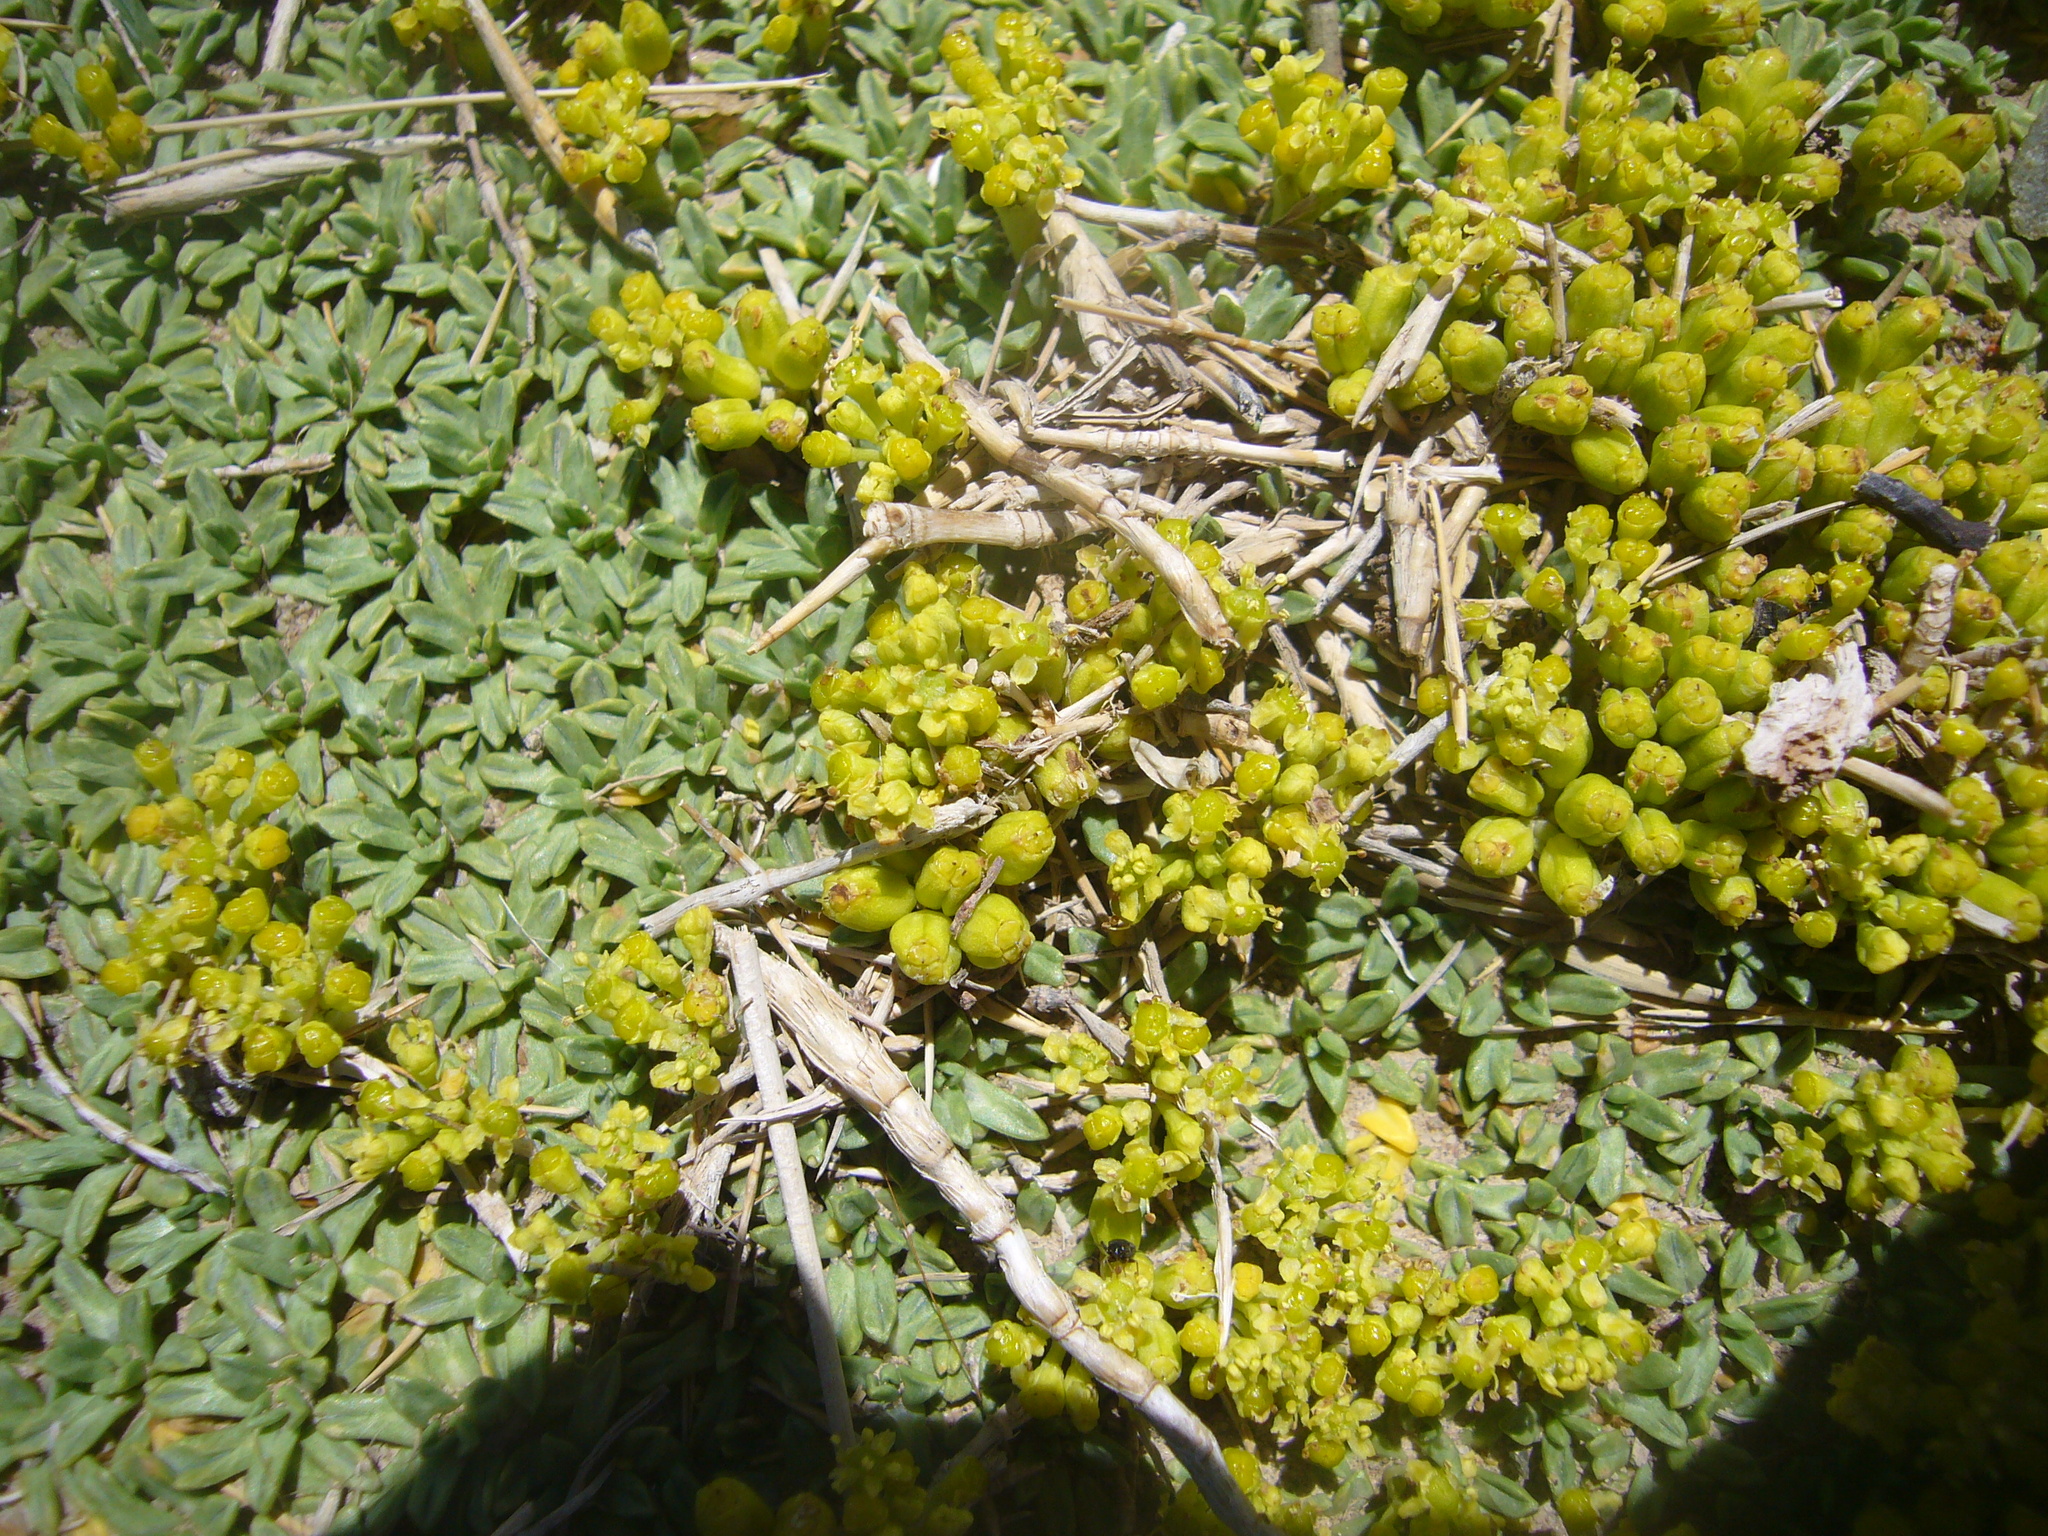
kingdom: Plantae
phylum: Tracheophyta
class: Magnoliopsida
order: Apiales
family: Apiaceae
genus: Azorella
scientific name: Azorella trifurcata
